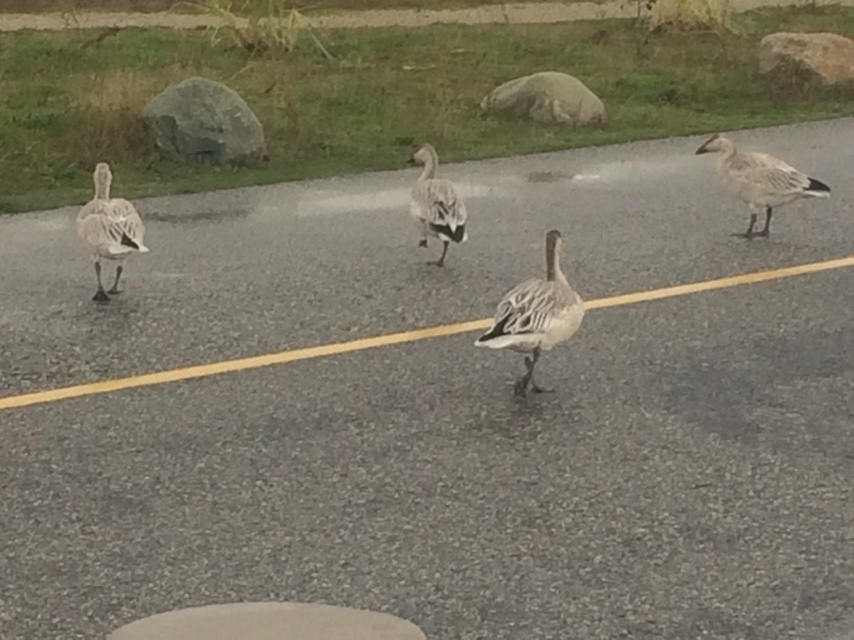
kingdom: Animalia
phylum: Chordata
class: Aves
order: Anseriformes
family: Anatidae
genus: Anser
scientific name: Anser caerulescens
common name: Snow goose
